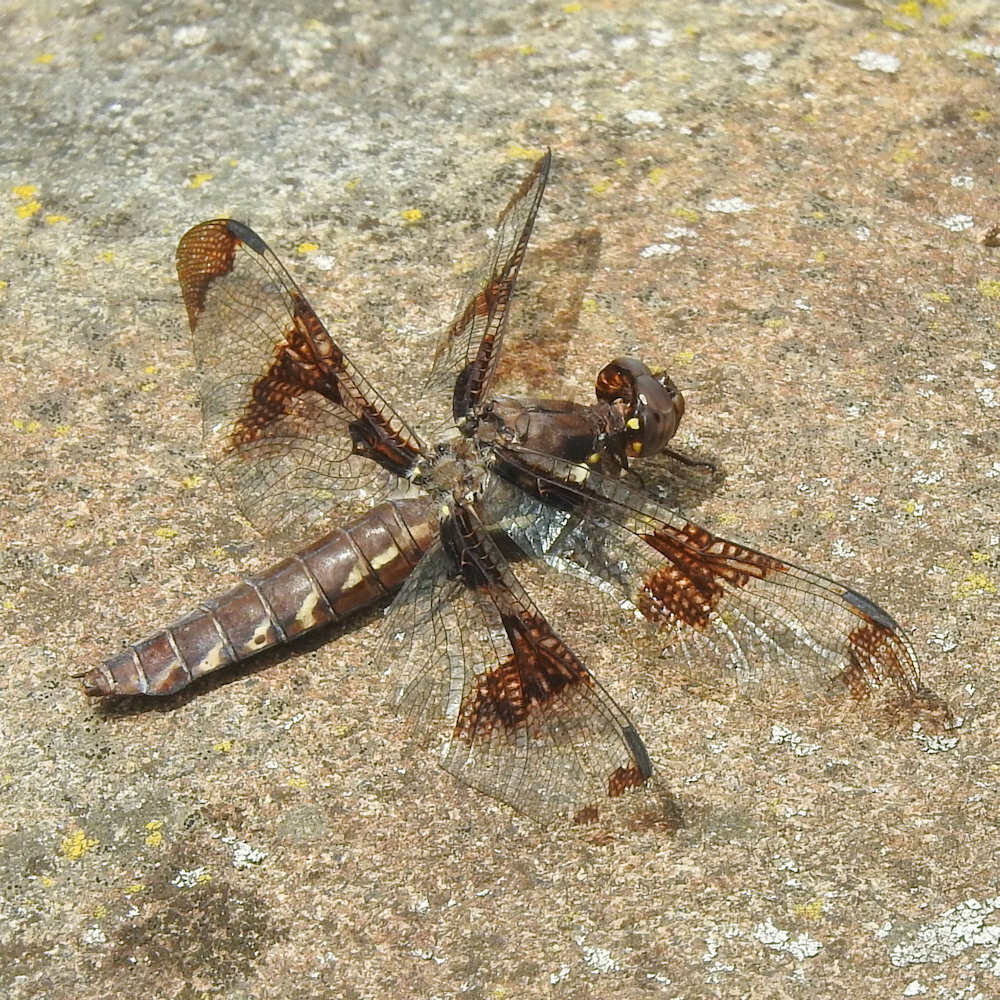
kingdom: Animalia
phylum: Arthropoda
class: Insecta
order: Odonata
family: Libellulidae
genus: Plathemis
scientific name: Plathemis lydia
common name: Common whitetail
